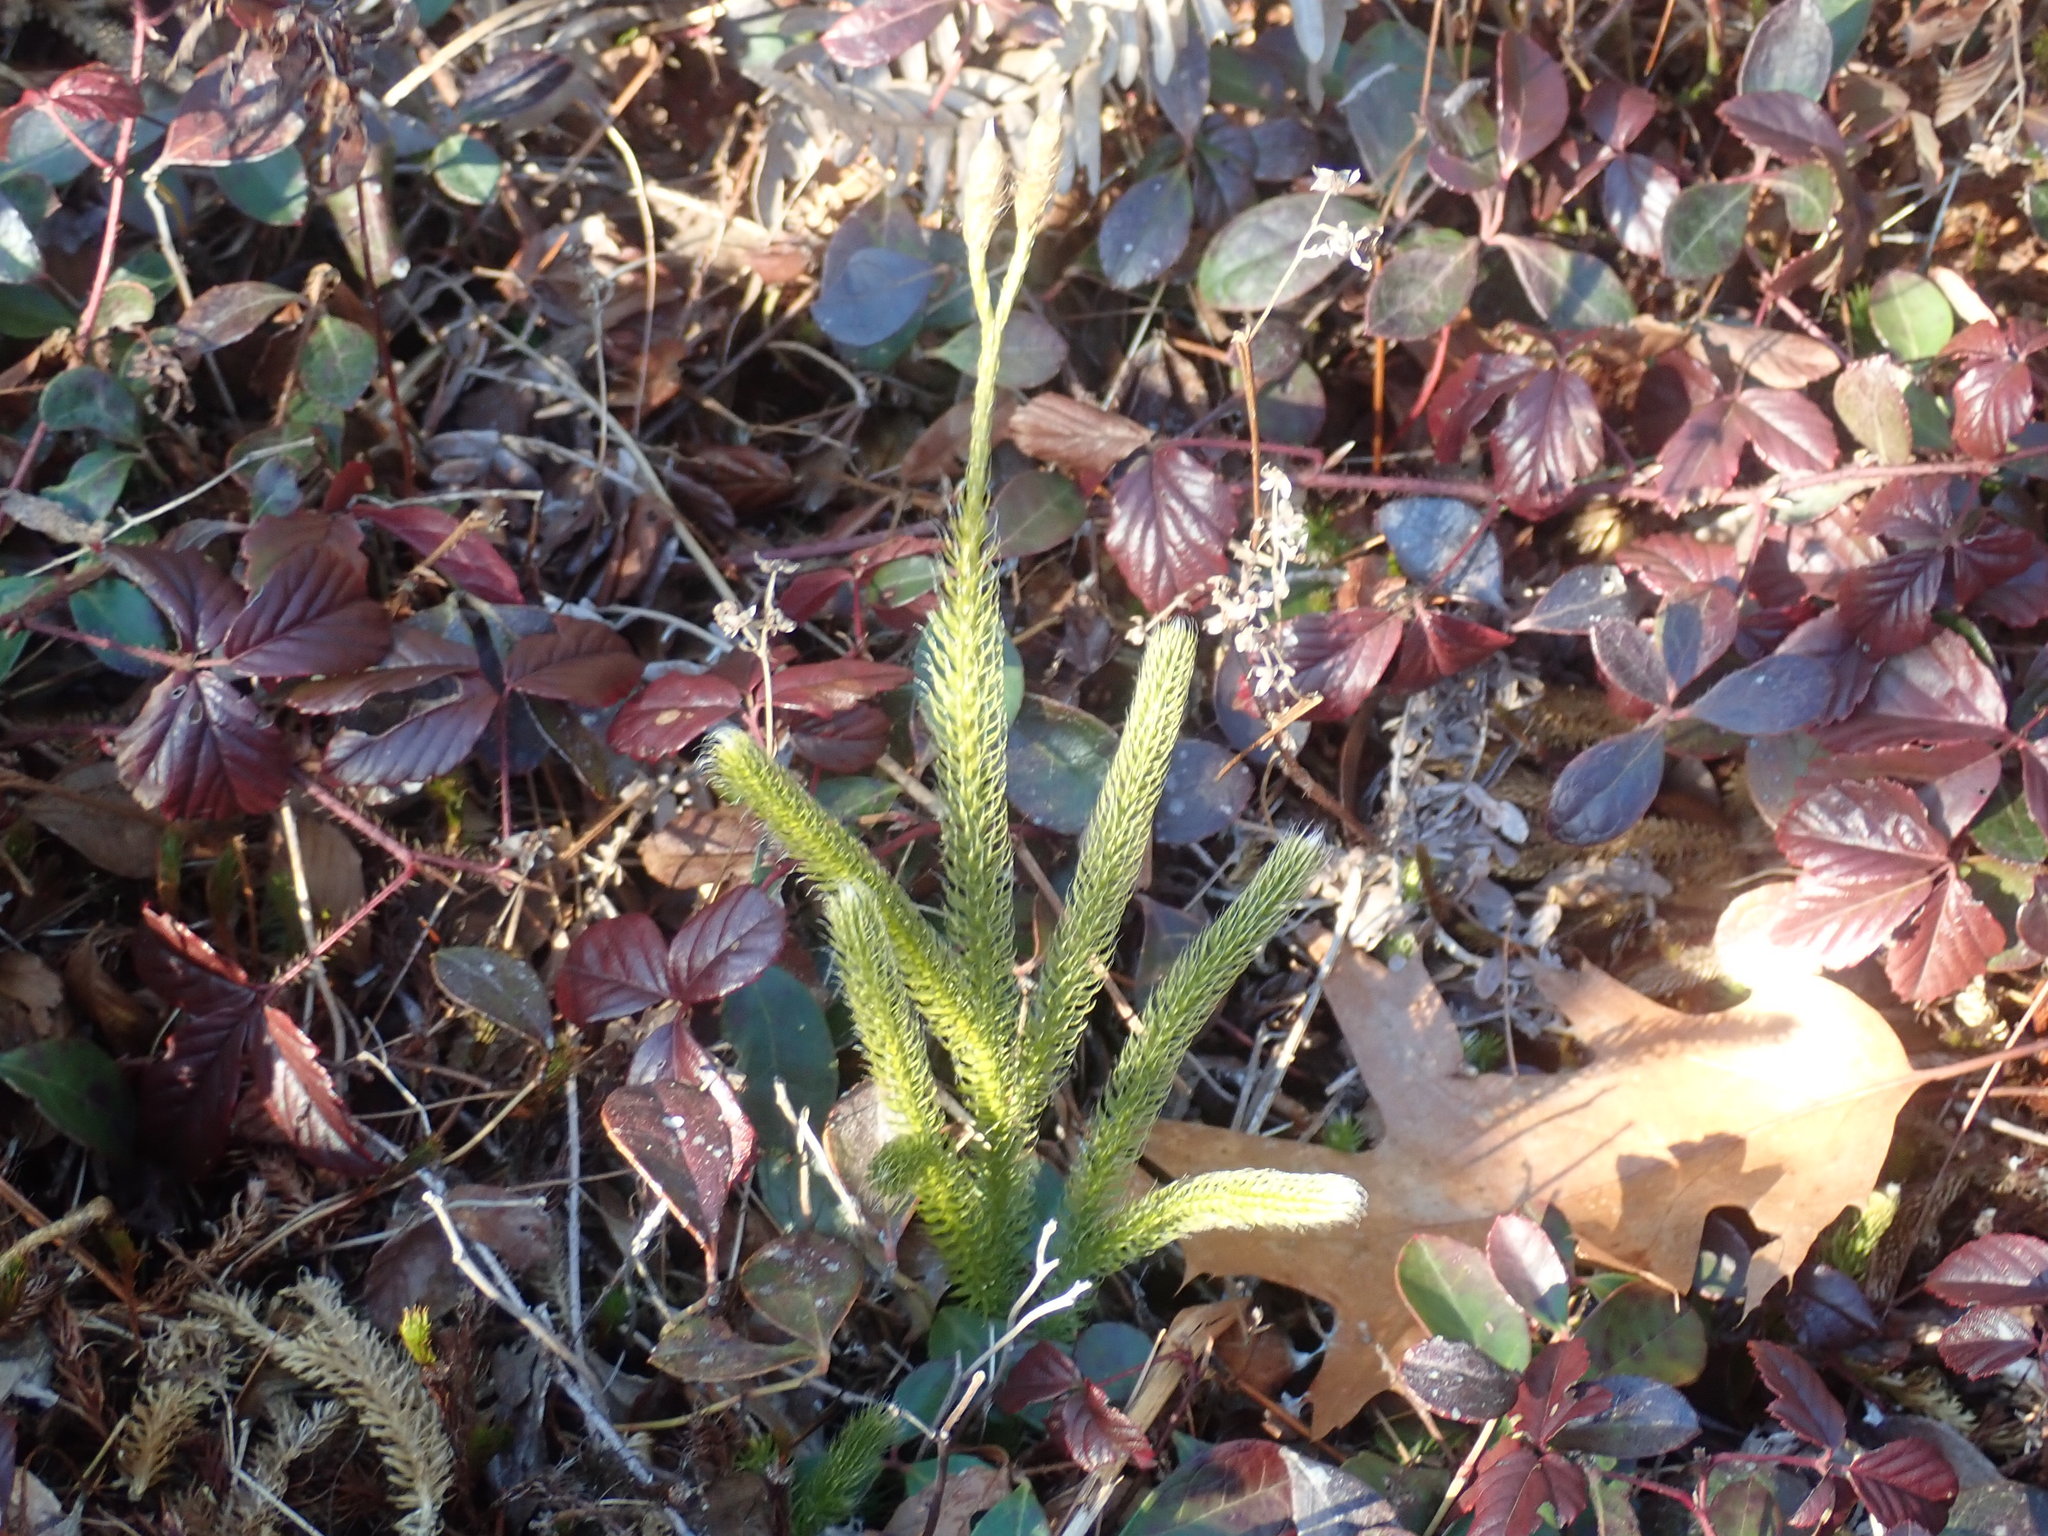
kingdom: Plantae
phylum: Tracheophyta
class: Lycopodiopsida
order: Lycopodiales
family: Lycopodiaceae
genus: Lycopodium
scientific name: Lycopodium clavatum
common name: Stag's-horn clubmoss
